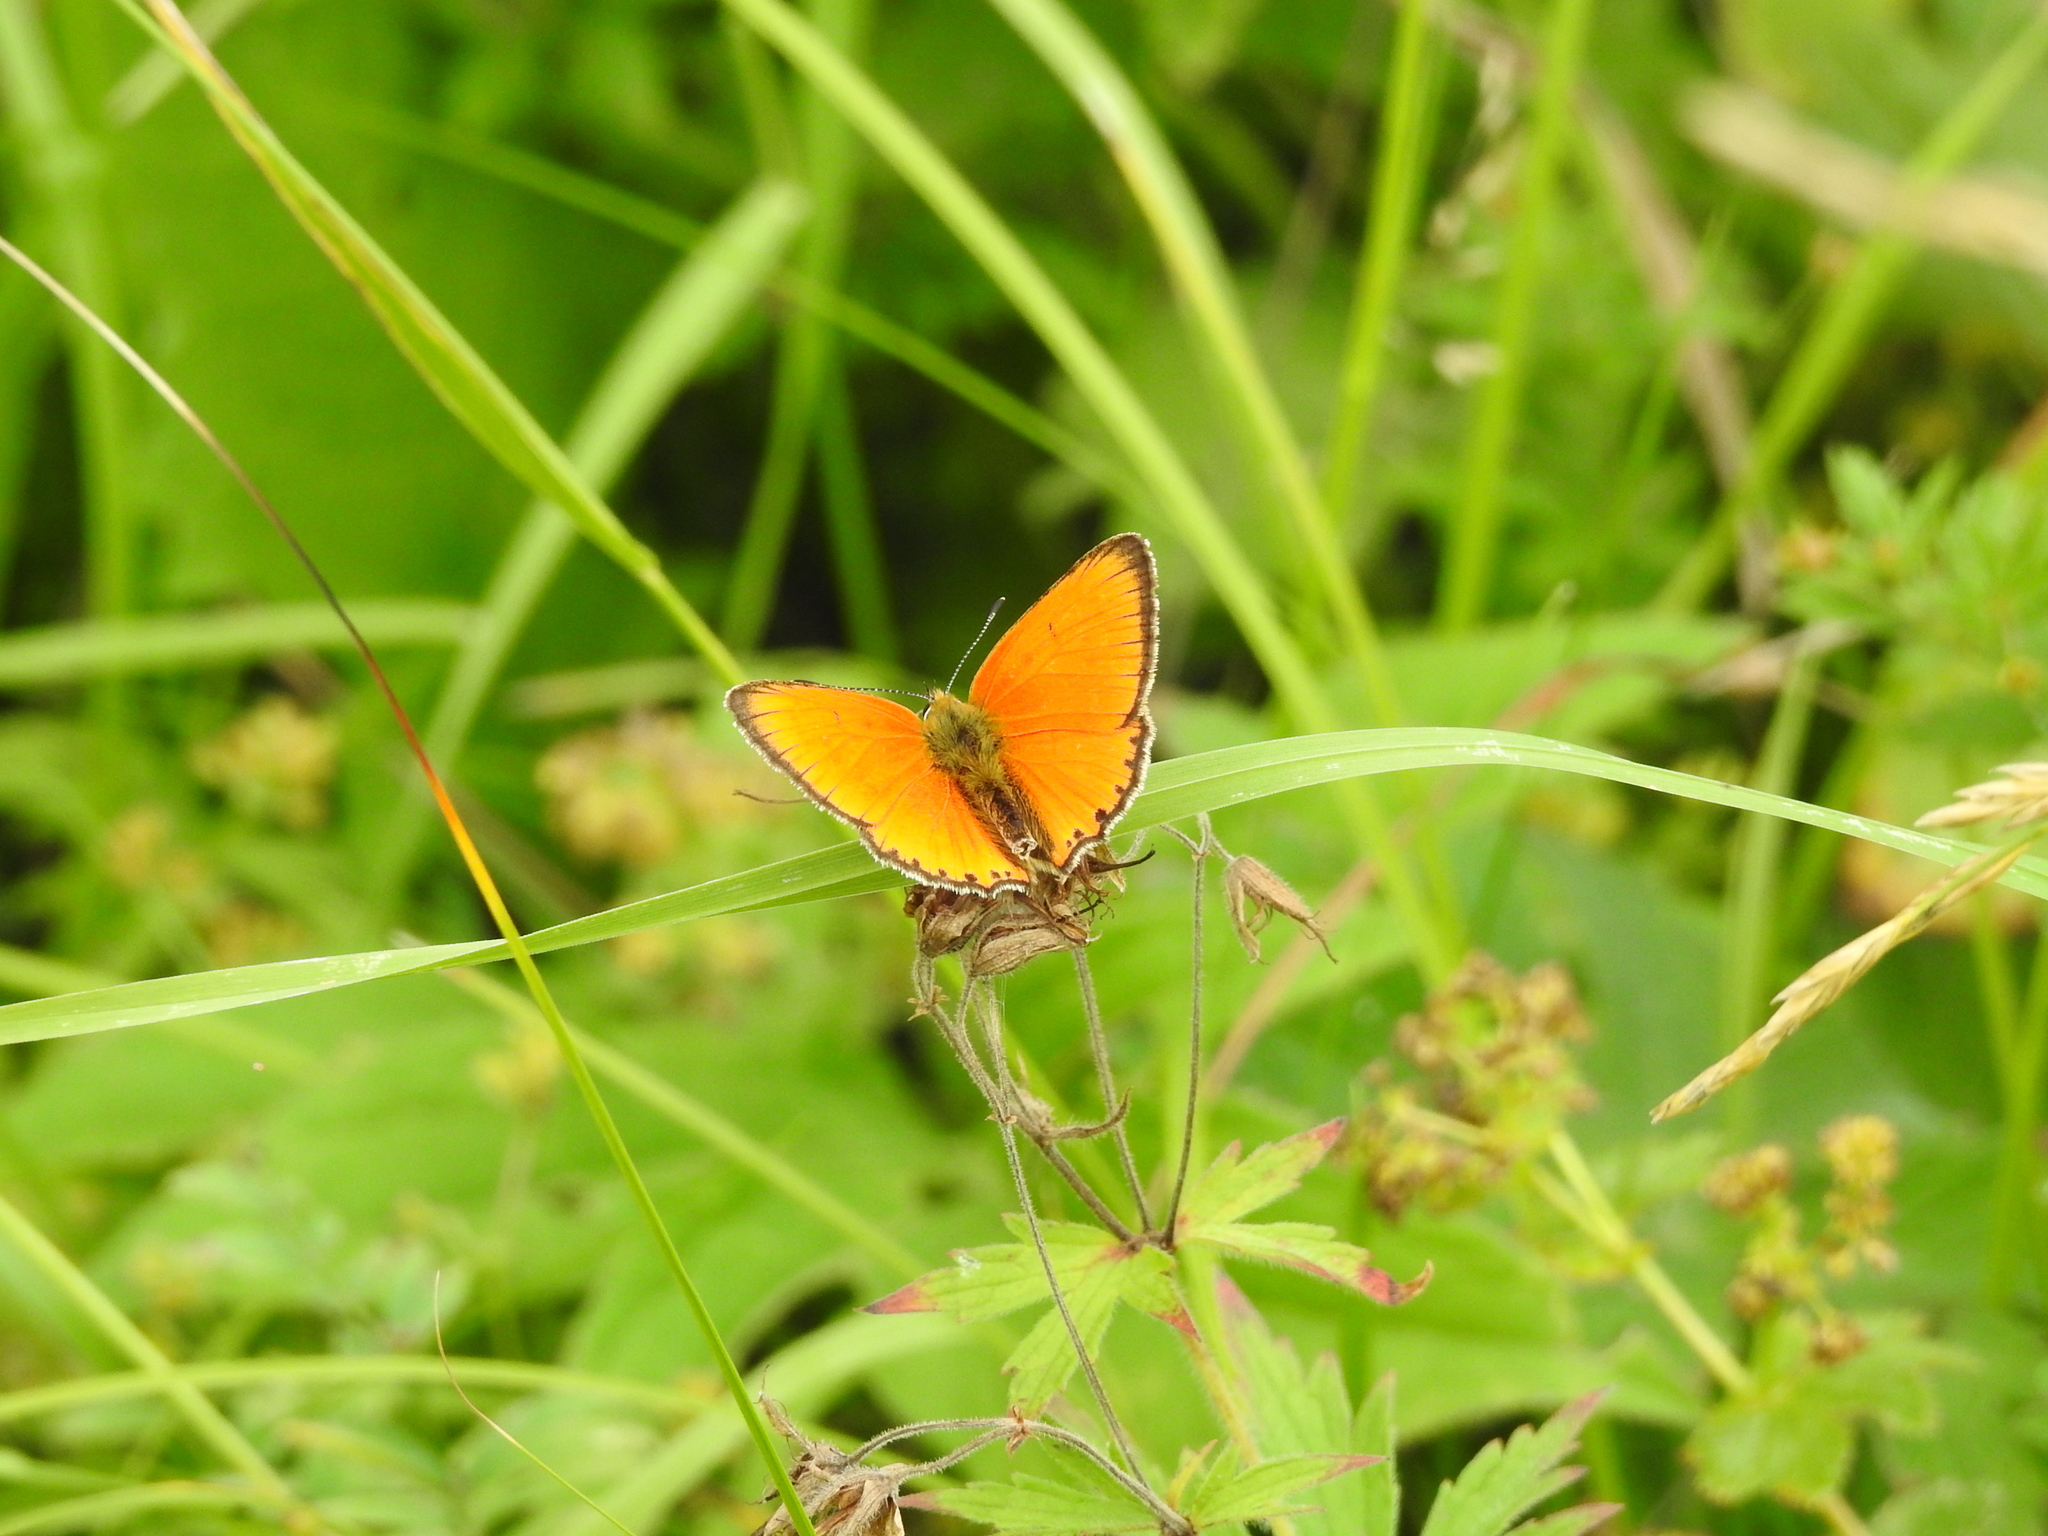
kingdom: Animalia
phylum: Arthropoda
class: Insecta
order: Lepidoptera
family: Lycaenidae
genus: Lycaena
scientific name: Lycaena virgaureae
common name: Scarce copper
